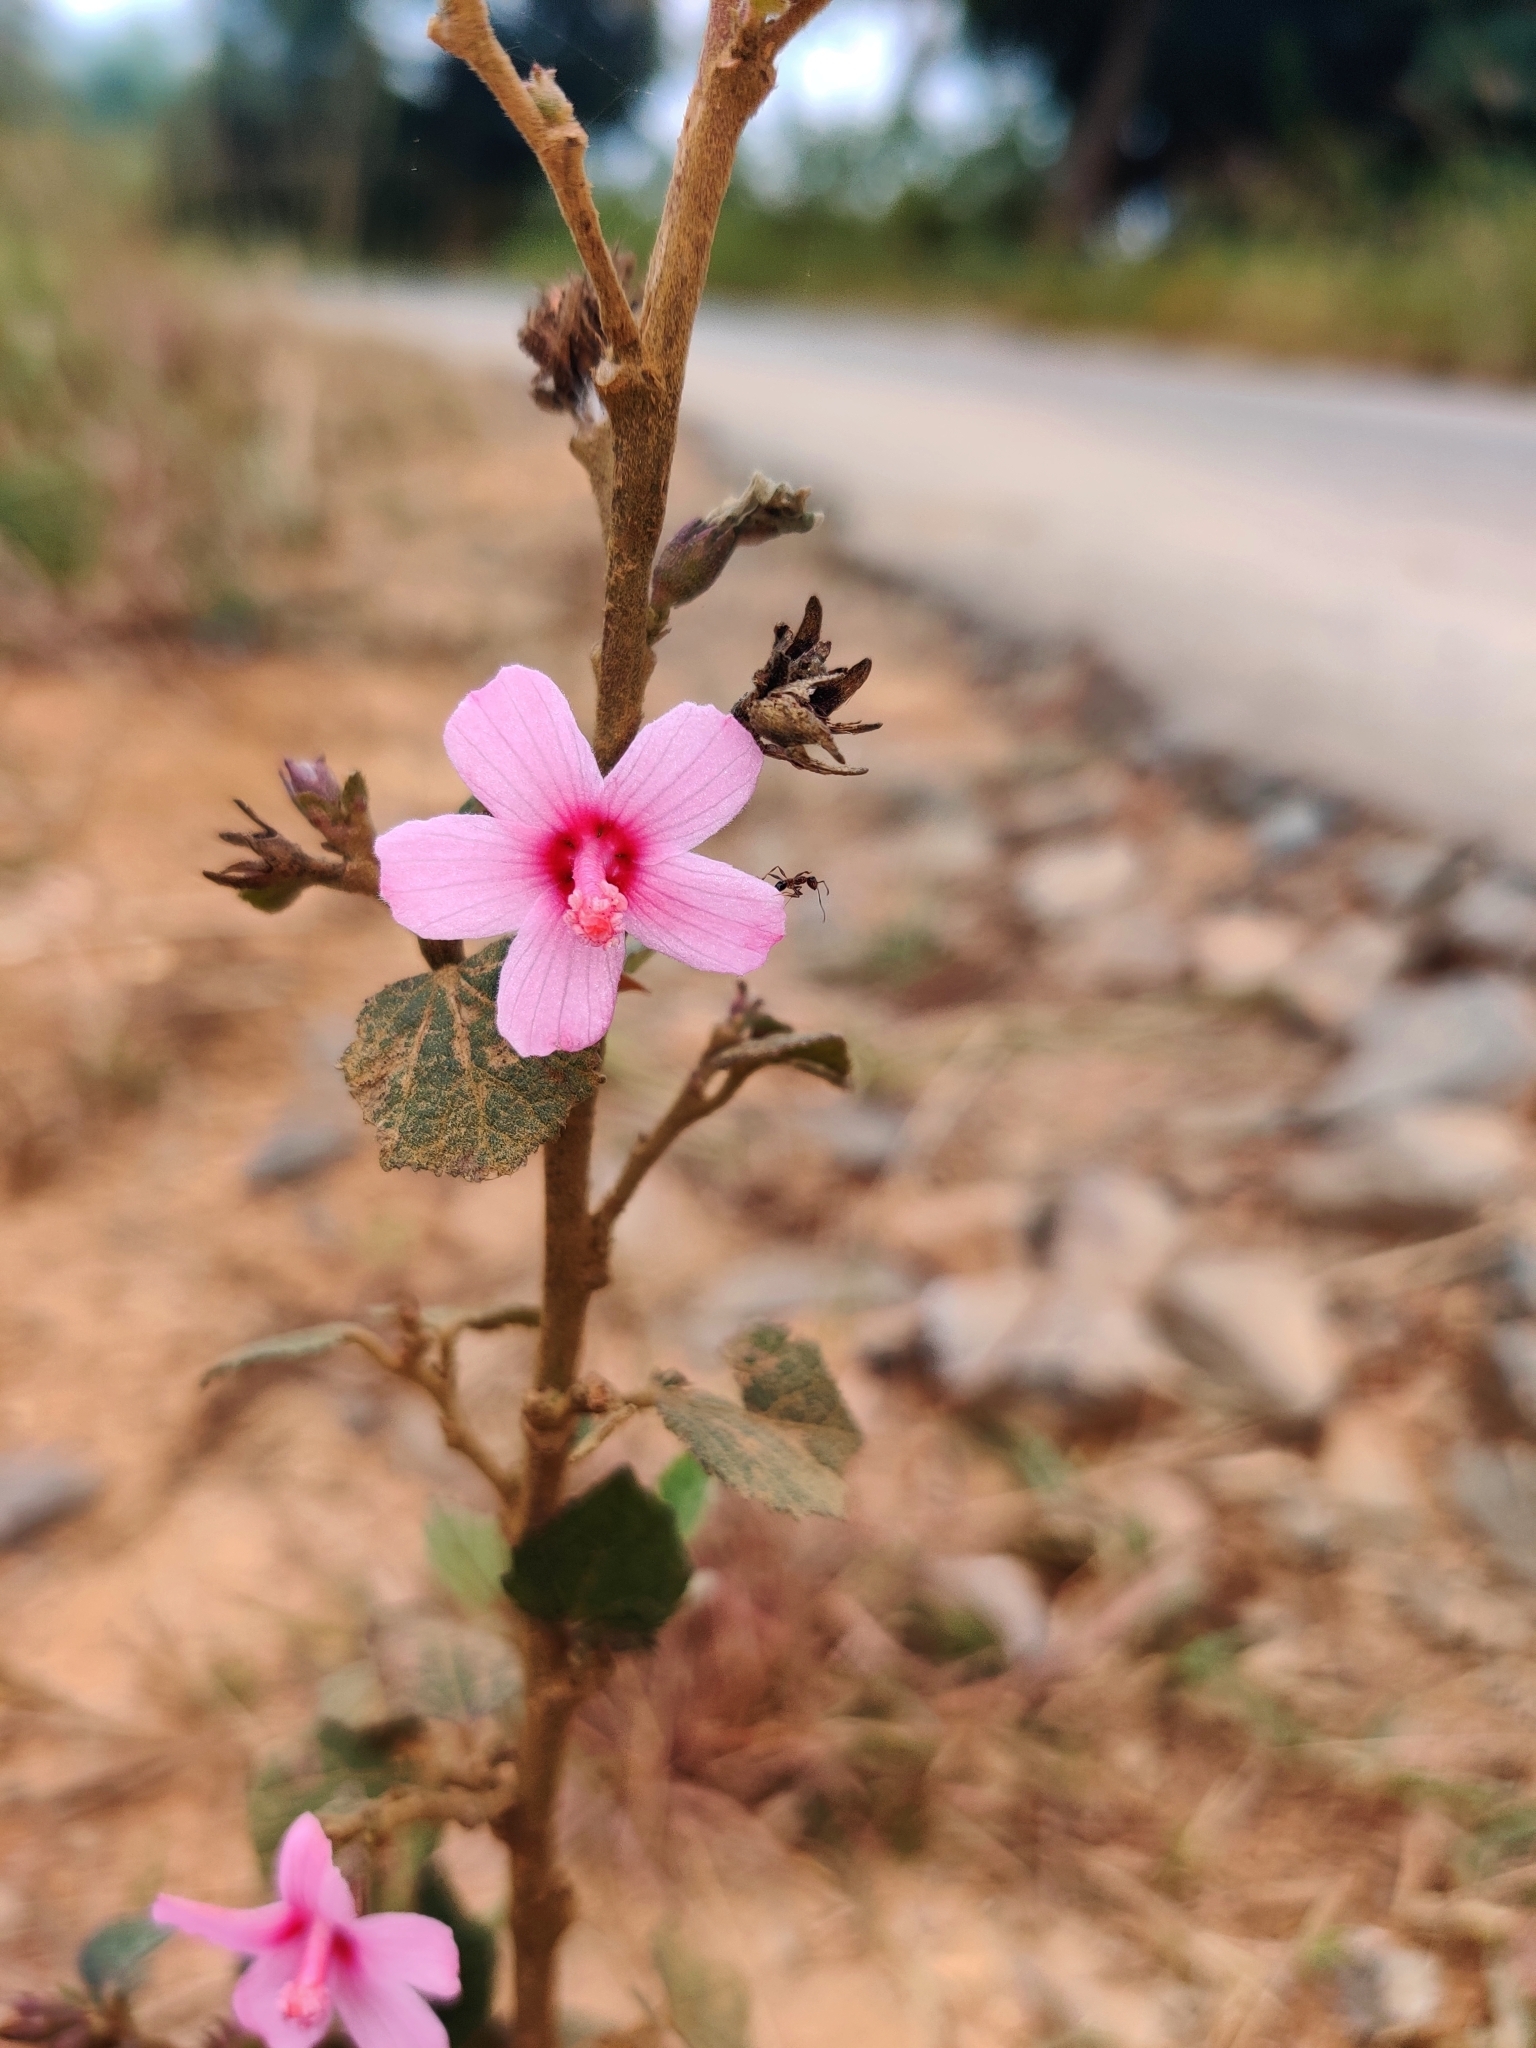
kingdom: Plantae
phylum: Tracheophyta
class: Magnoliopsida
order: Malvales
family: Malvaceae
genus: Urena
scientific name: Urena lobata
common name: Caesarweed
